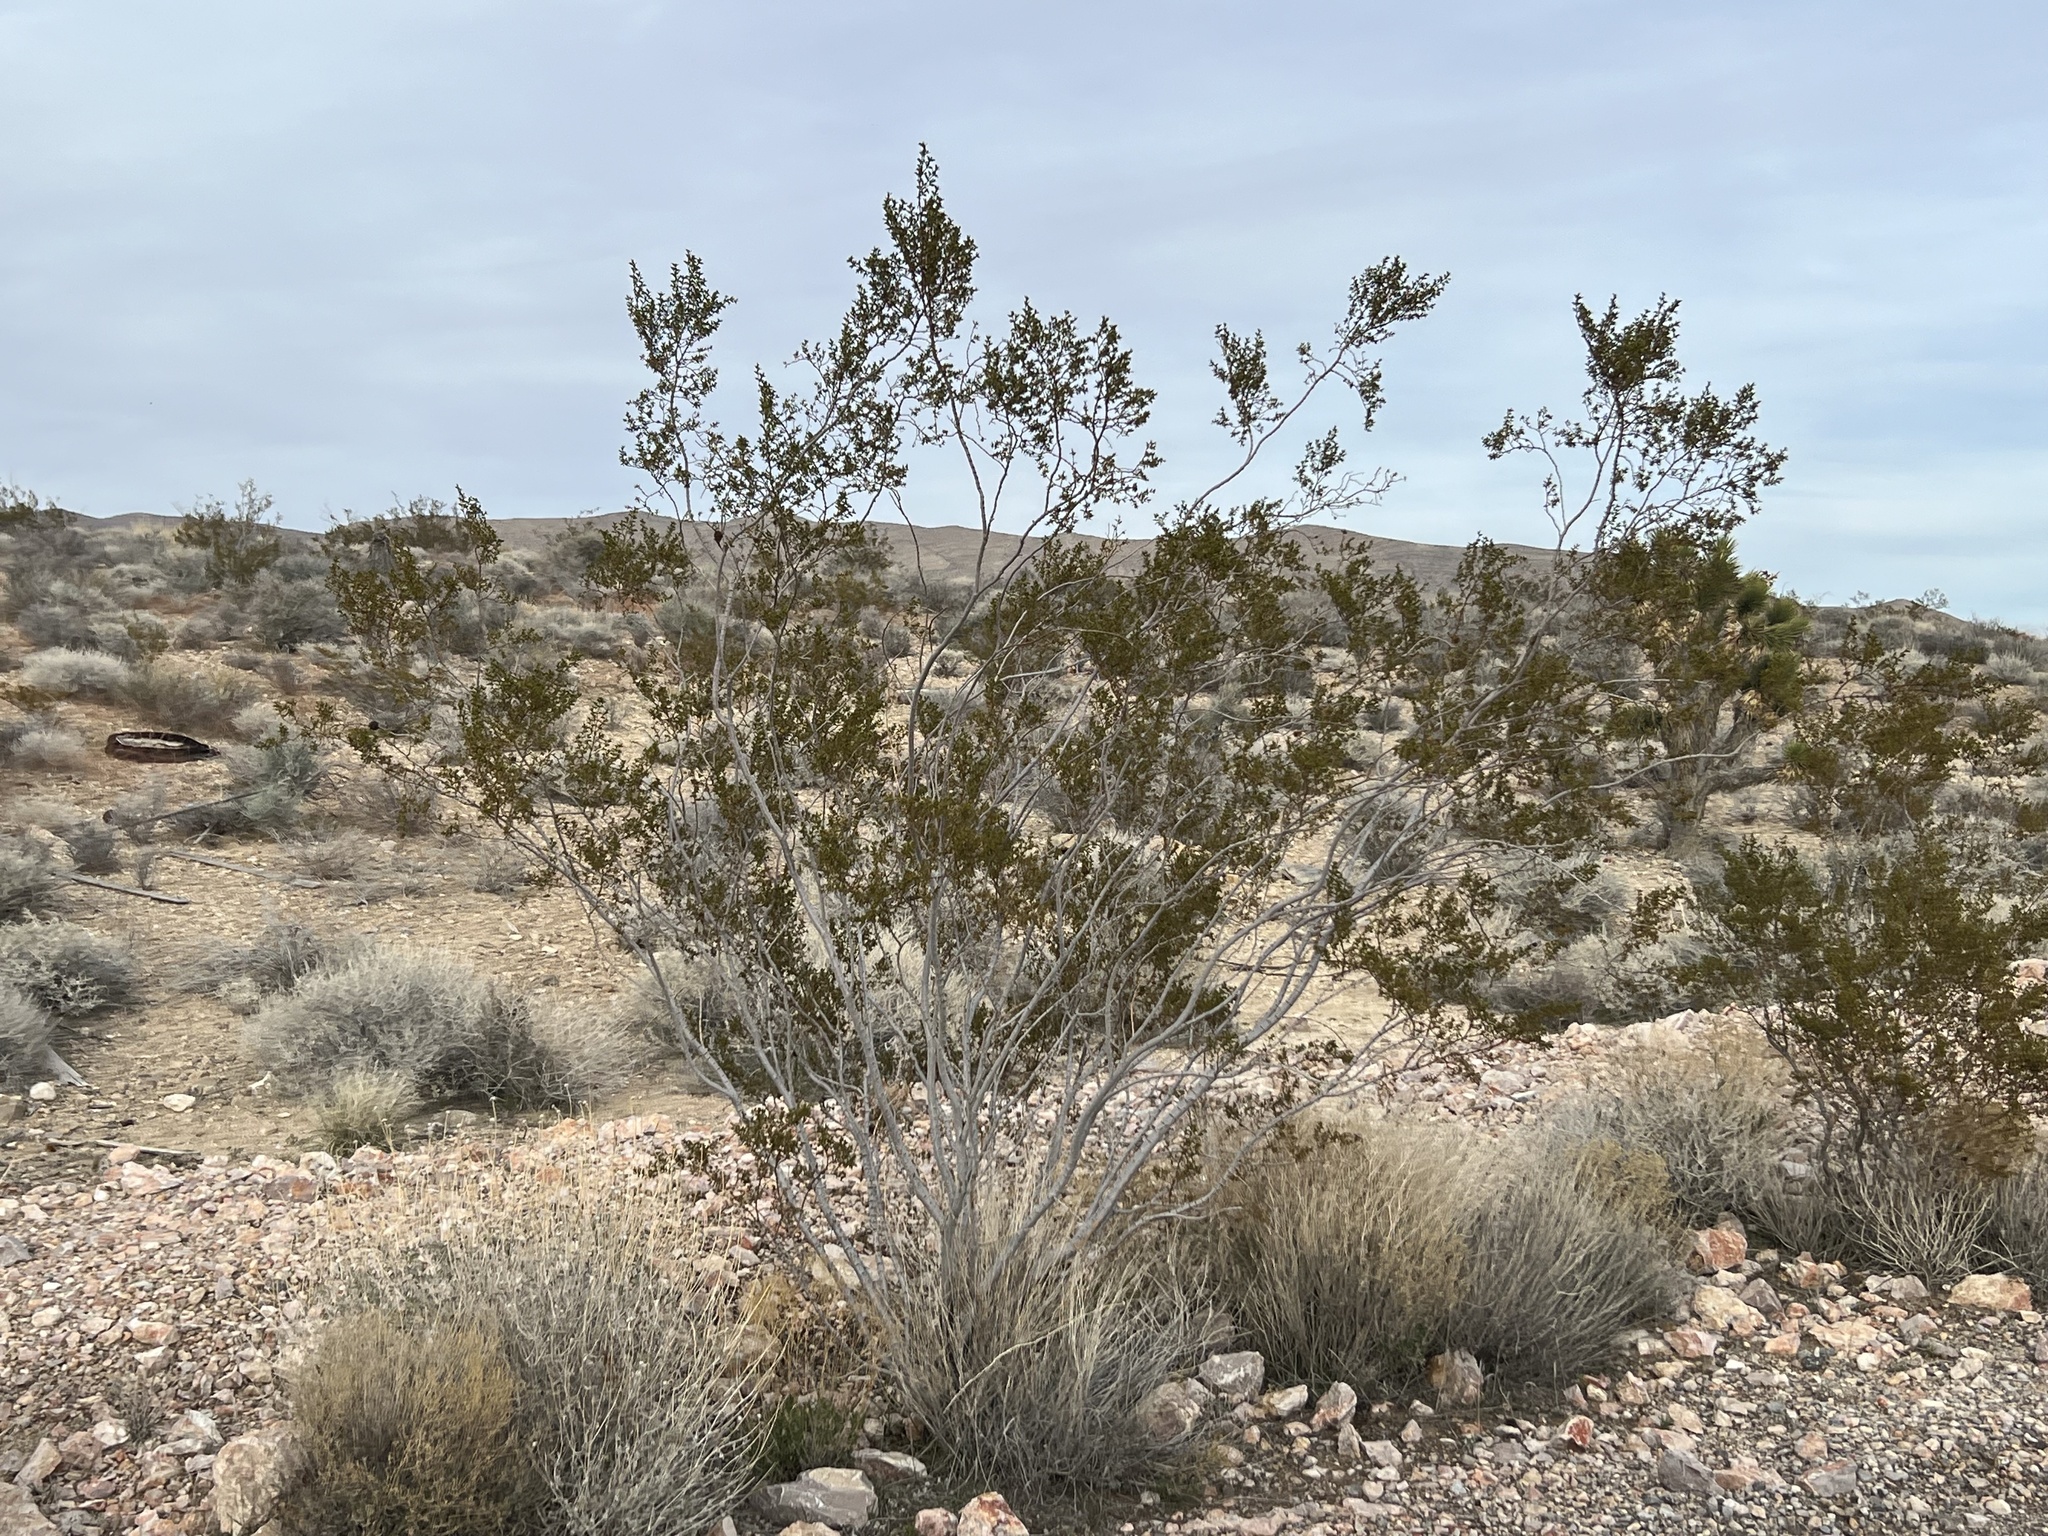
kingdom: Plantae
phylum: Tracheophyta
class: Magnoliopsida
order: Zygophyllales
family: Zygophyllaceae
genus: Larrea
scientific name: Larrea tridentata
